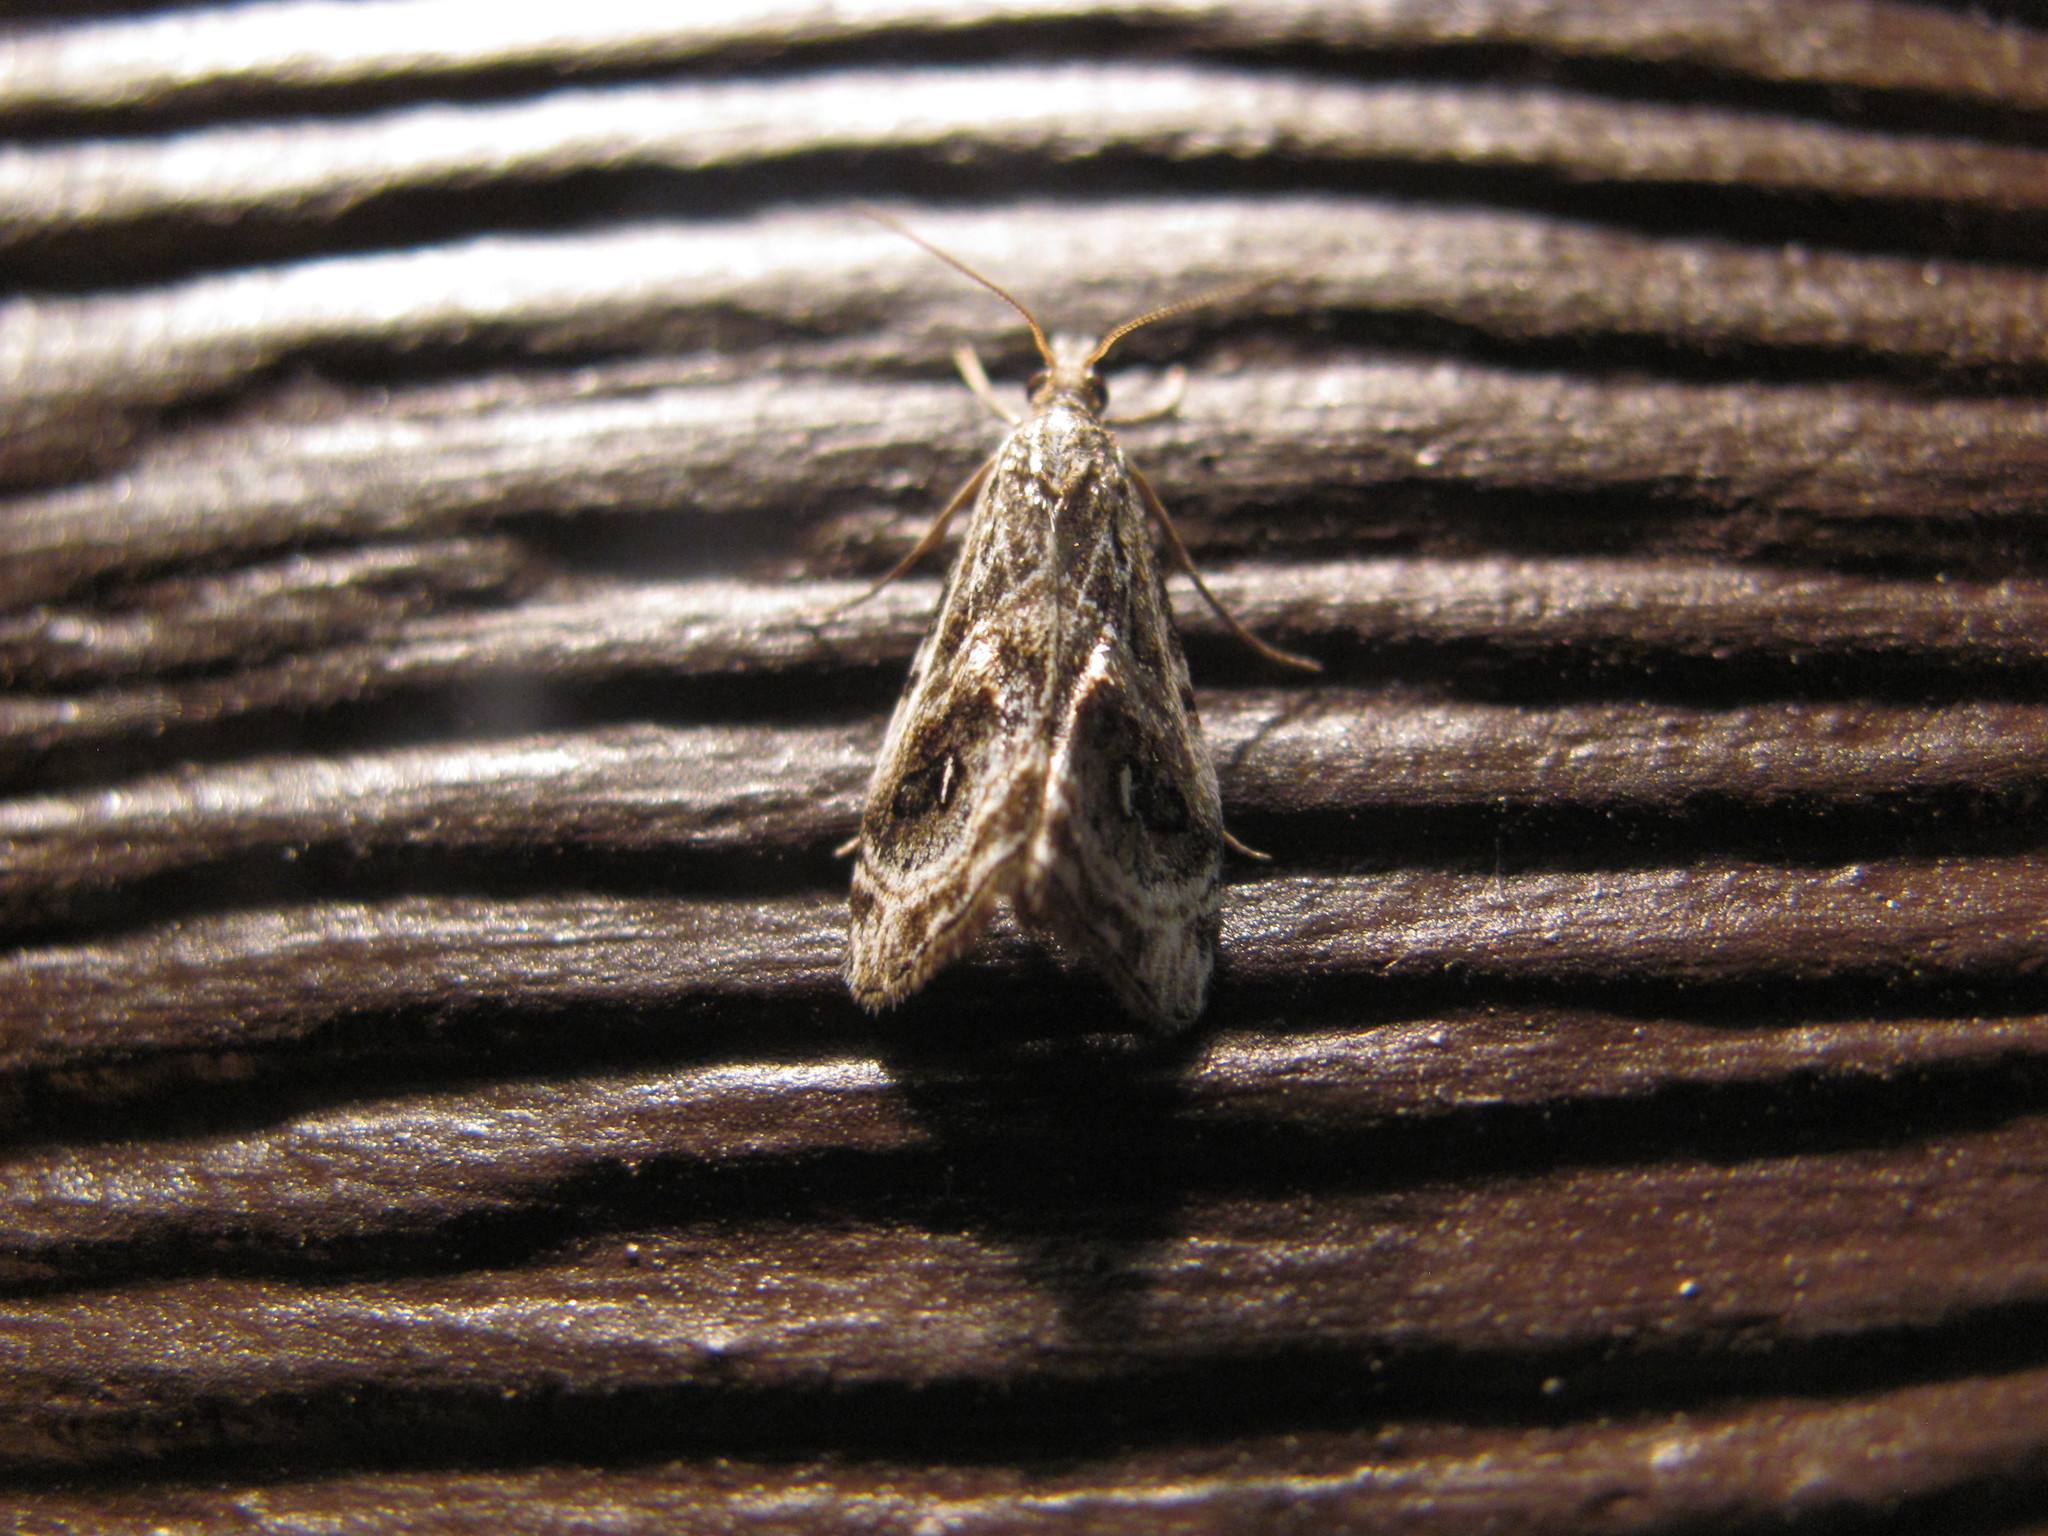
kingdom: Animalia
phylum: Arthropoda
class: Insecta
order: Lepidoptera
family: Crambidae
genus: Gadira
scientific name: Gadira acerella
